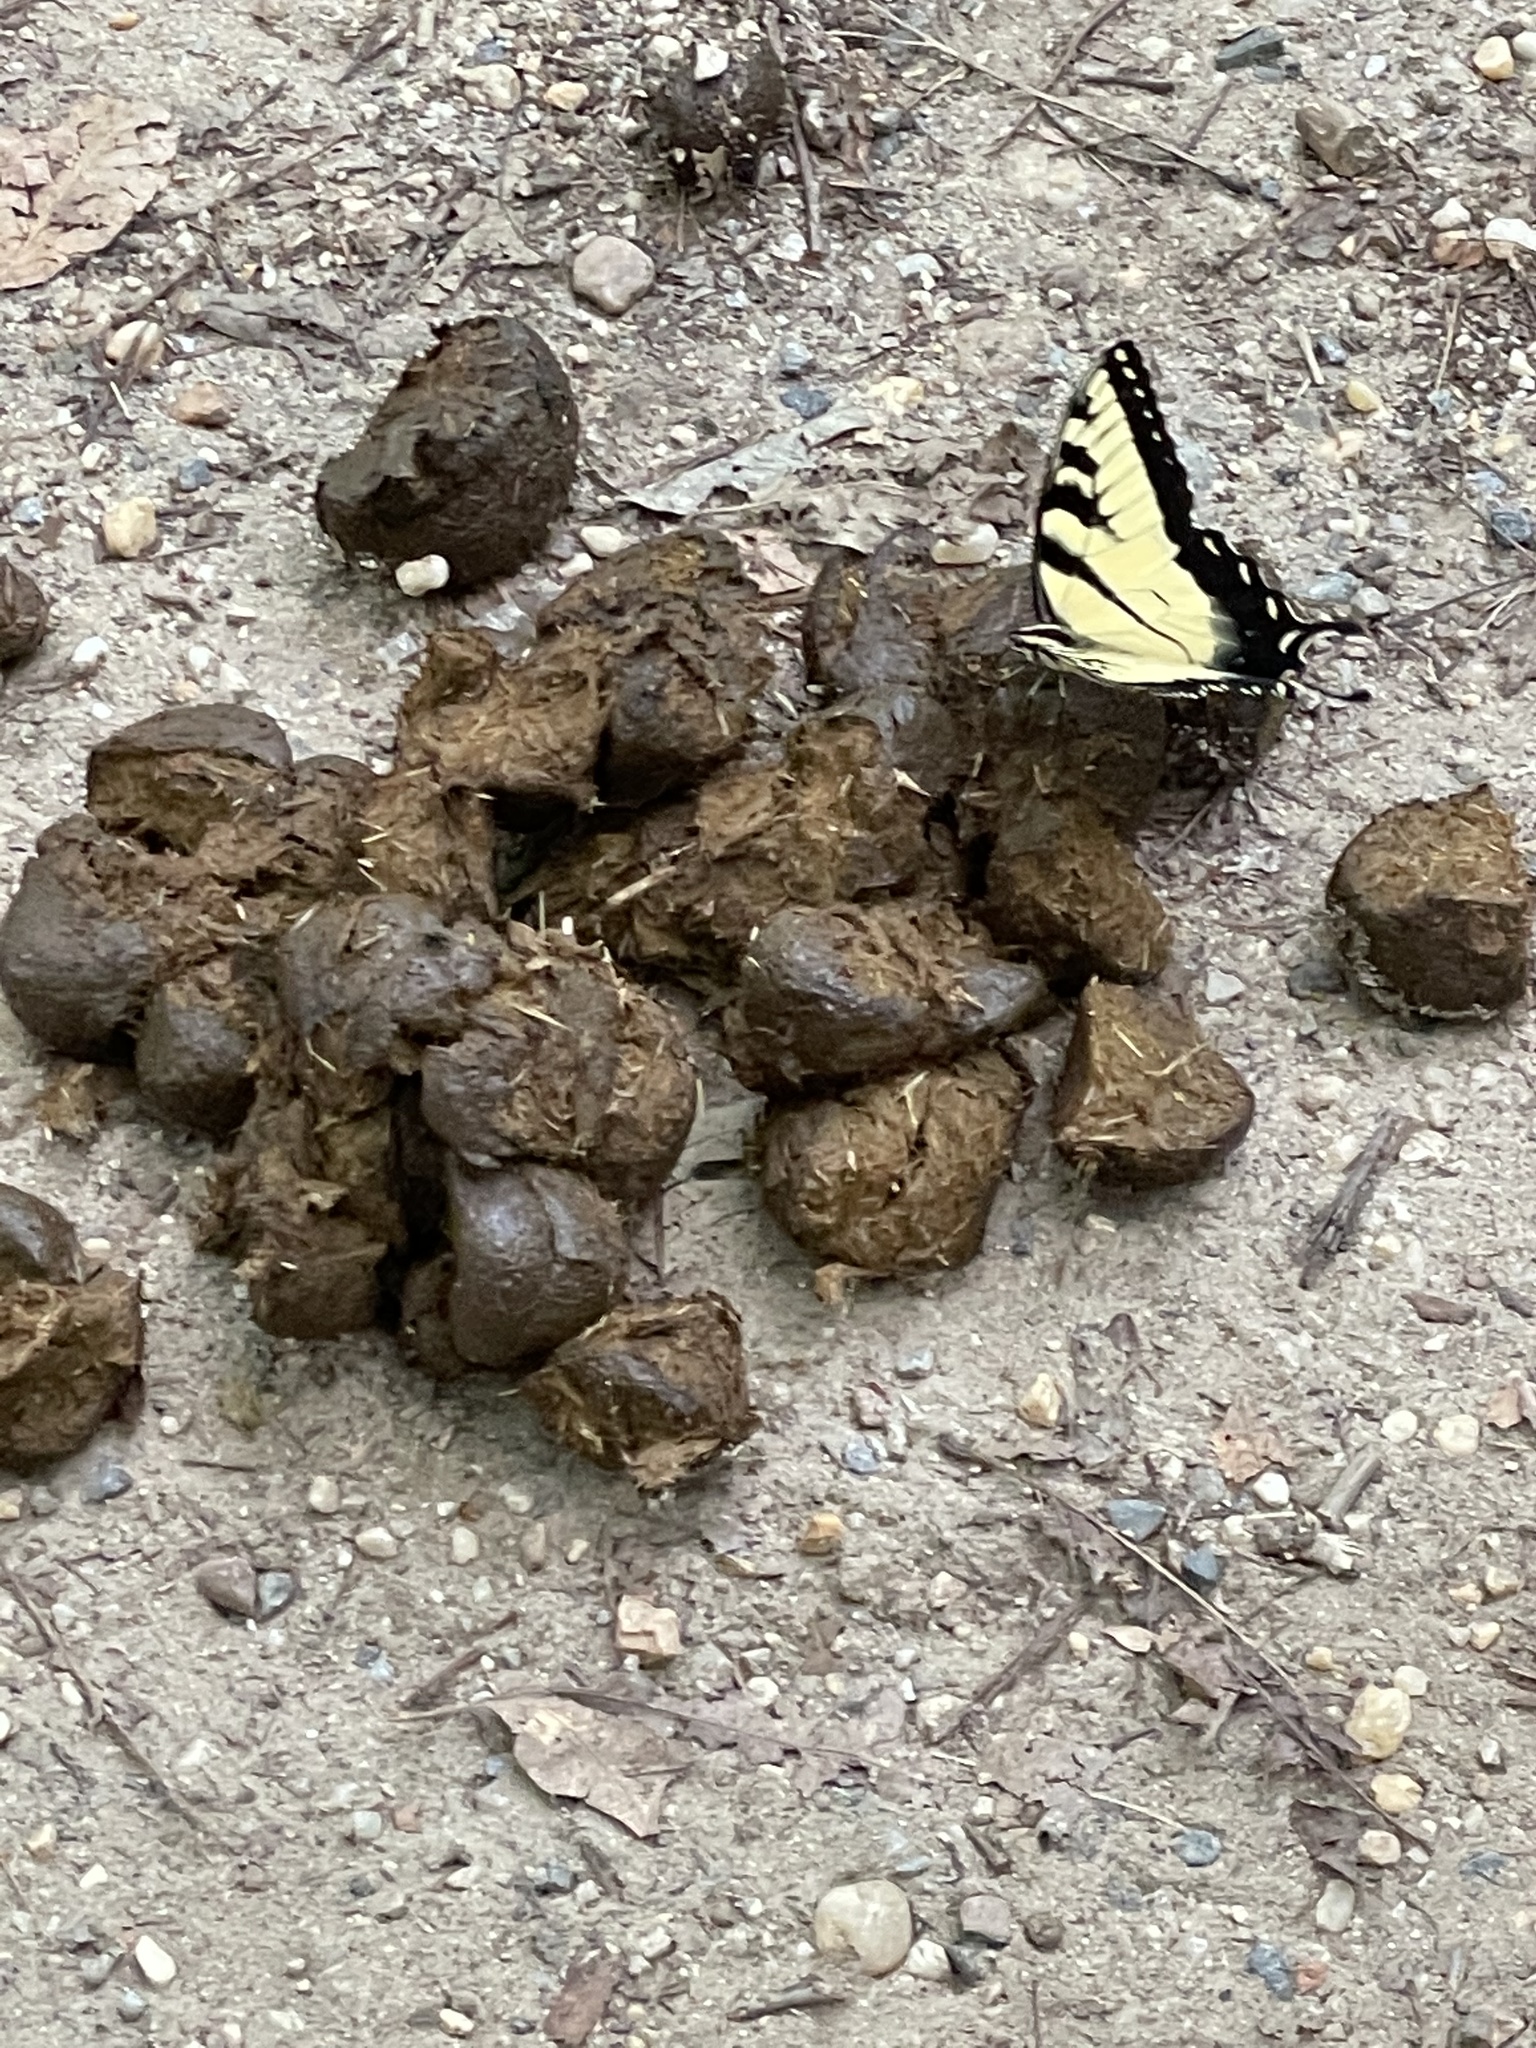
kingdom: Animalia
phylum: Arthropoda
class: Insecta
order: Lepidoptera
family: Papilionidae
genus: Papilio
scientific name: Papilio glaucus
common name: Tiger swallowtail
